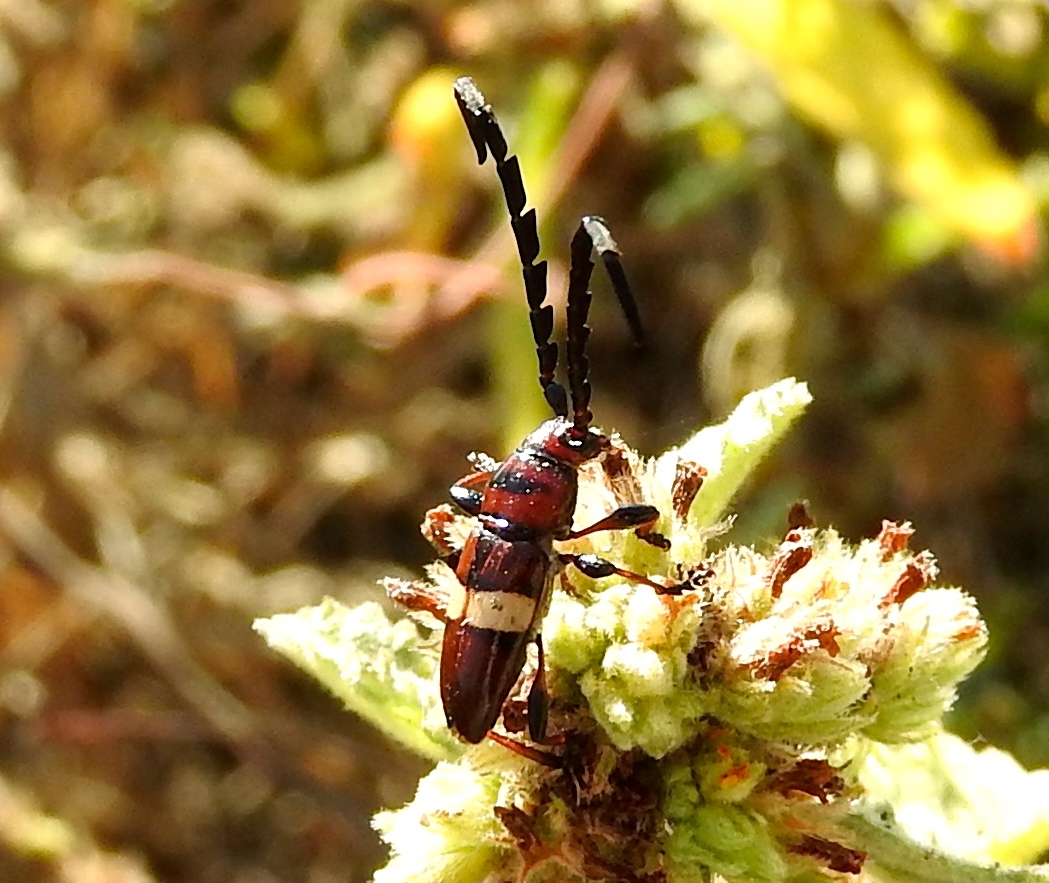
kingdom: Animalia
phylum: Arthropoda
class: Insecta
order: Coleoptera
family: Cerambycidae
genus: Lissonotus
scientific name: Lissonotus flavocinctus
